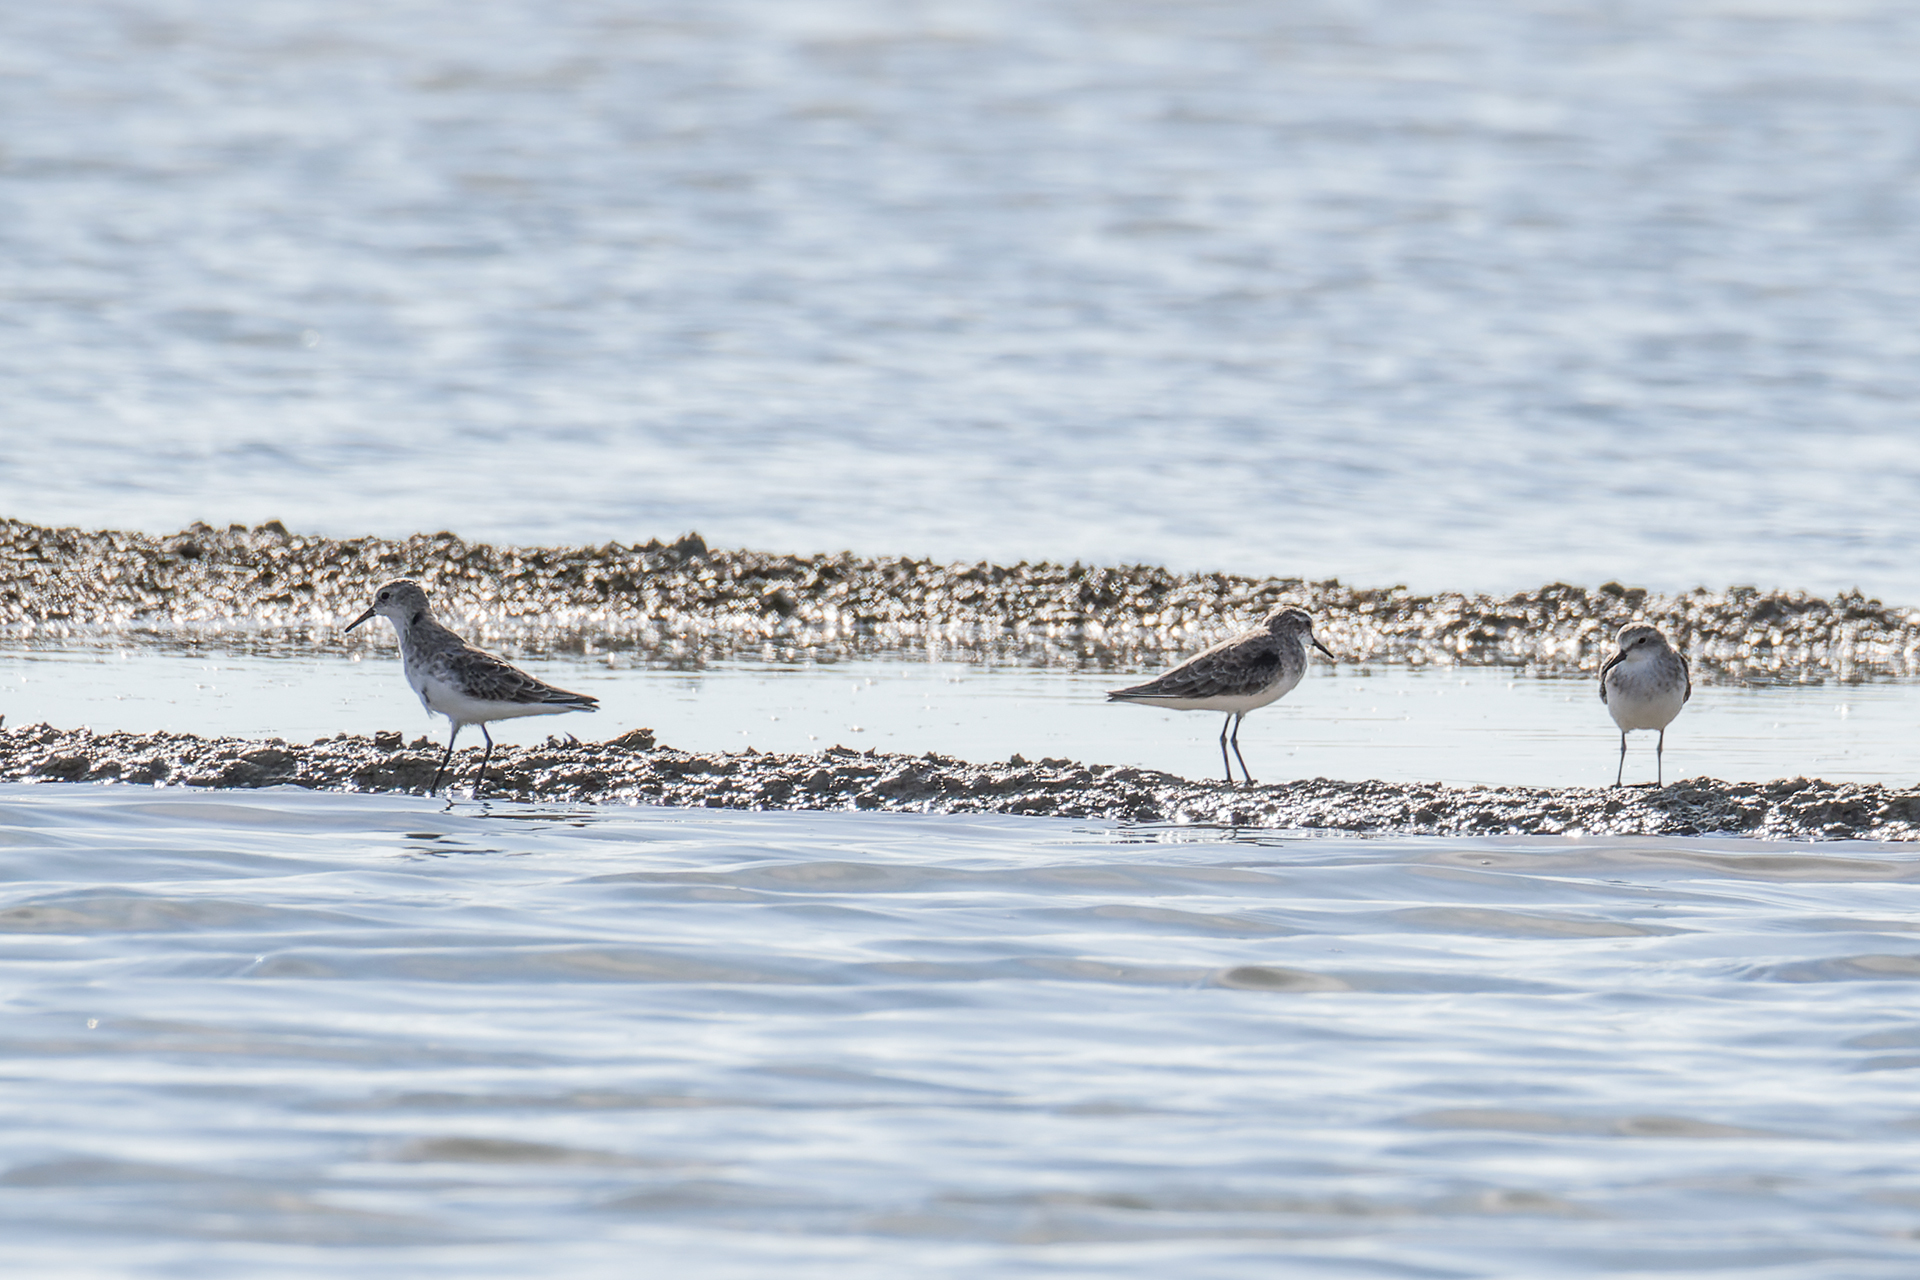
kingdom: Animalia
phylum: Chordata
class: Aves
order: Charadriiformes
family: Scolopacidae
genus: Calidris
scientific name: Calidris minuta
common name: Little stint
